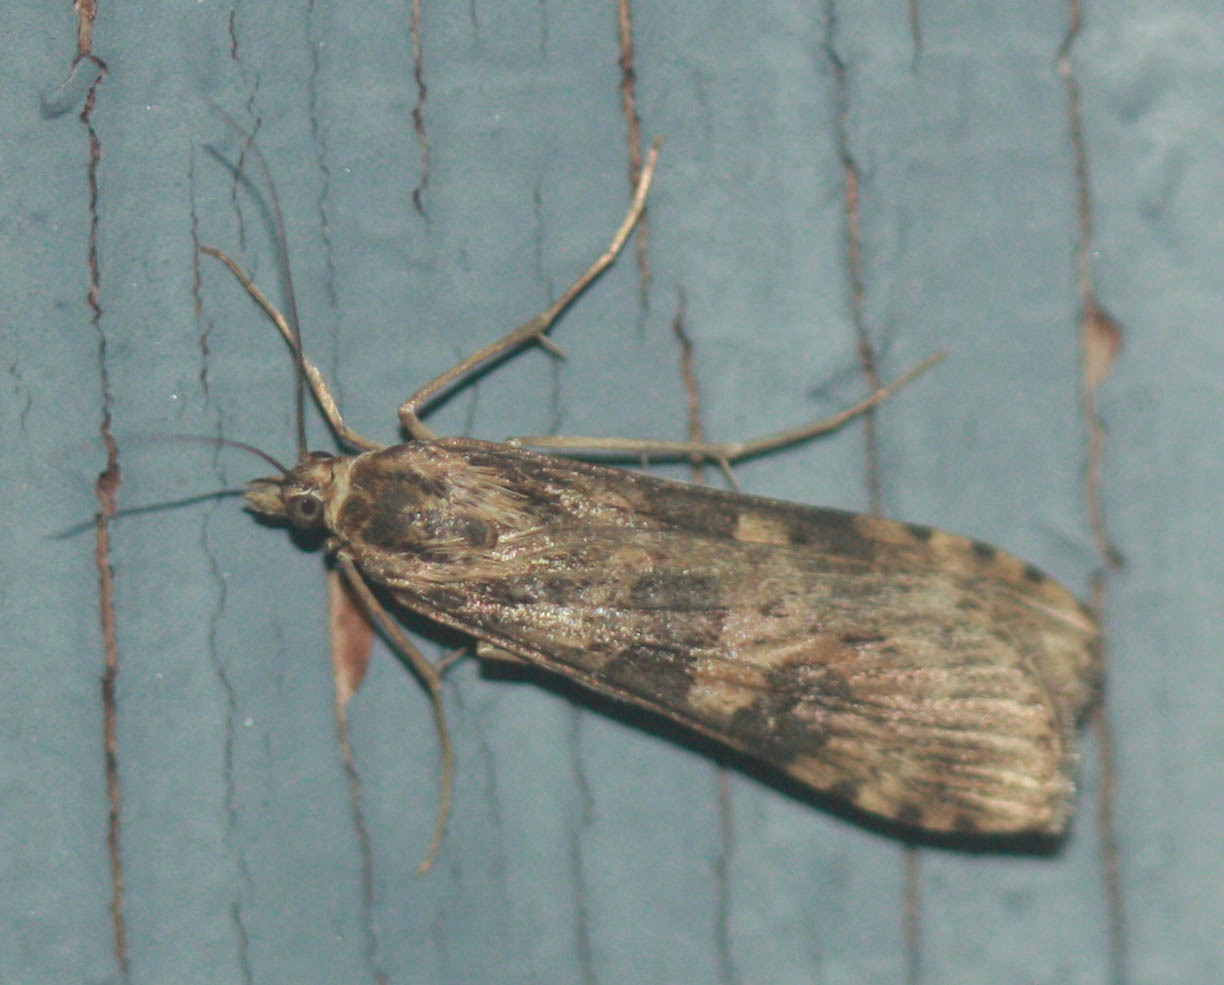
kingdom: Animalia
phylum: Arthropoda
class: Insecta
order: Lepidoptera
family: Crambidae
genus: Nomophila
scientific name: Nomophila nearctica
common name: American rush veneer
